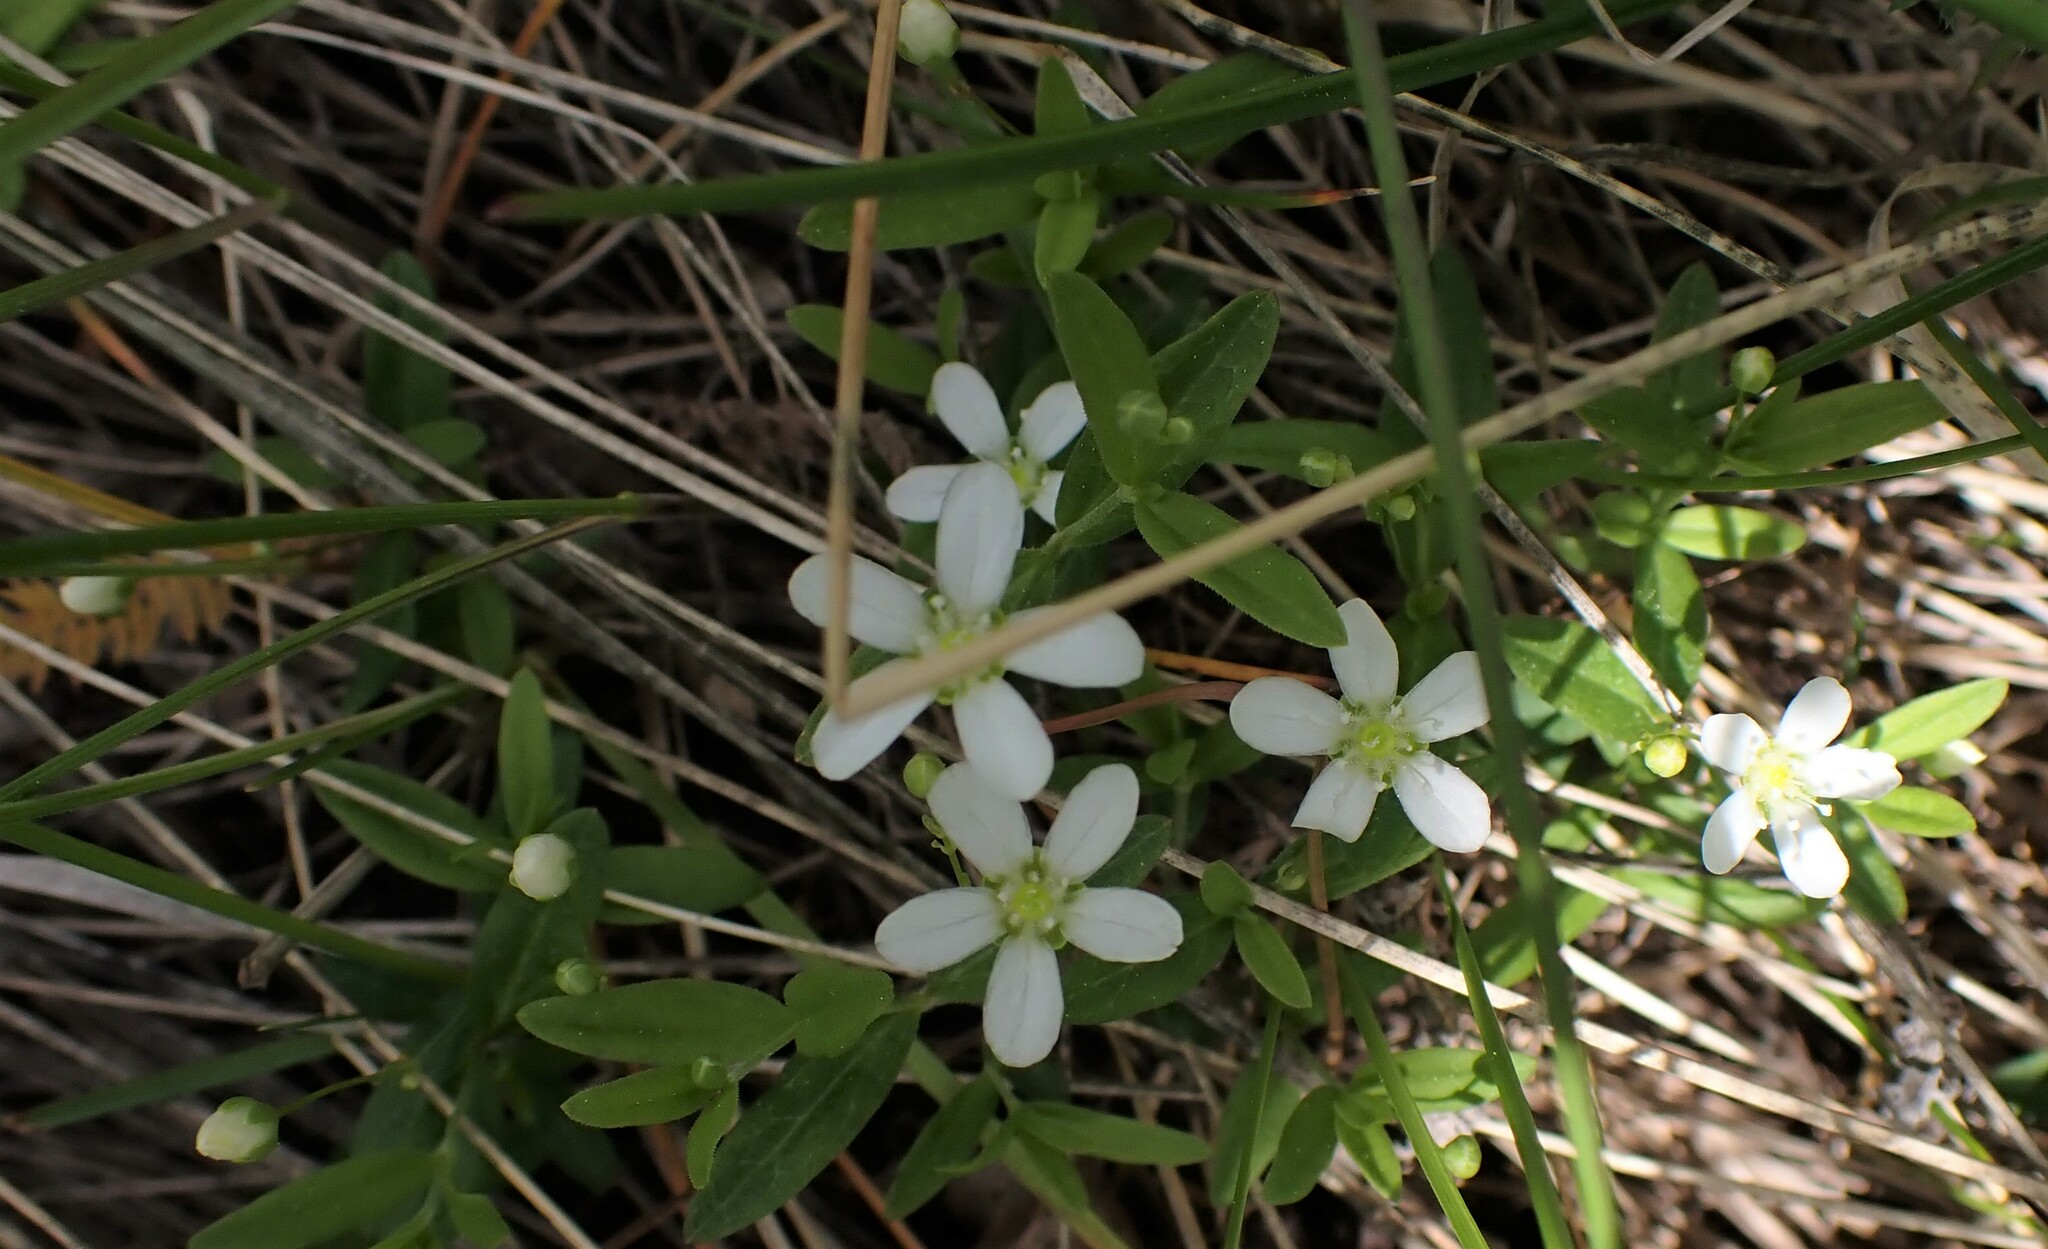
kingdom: Plantae
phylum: Tracheophyta
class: Magnoliopsida
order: Caryophyllales
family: Caryophyllaceae
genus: Moehringia
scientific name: Moehringia lateriflora
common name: Blunt-leaved sandwort
